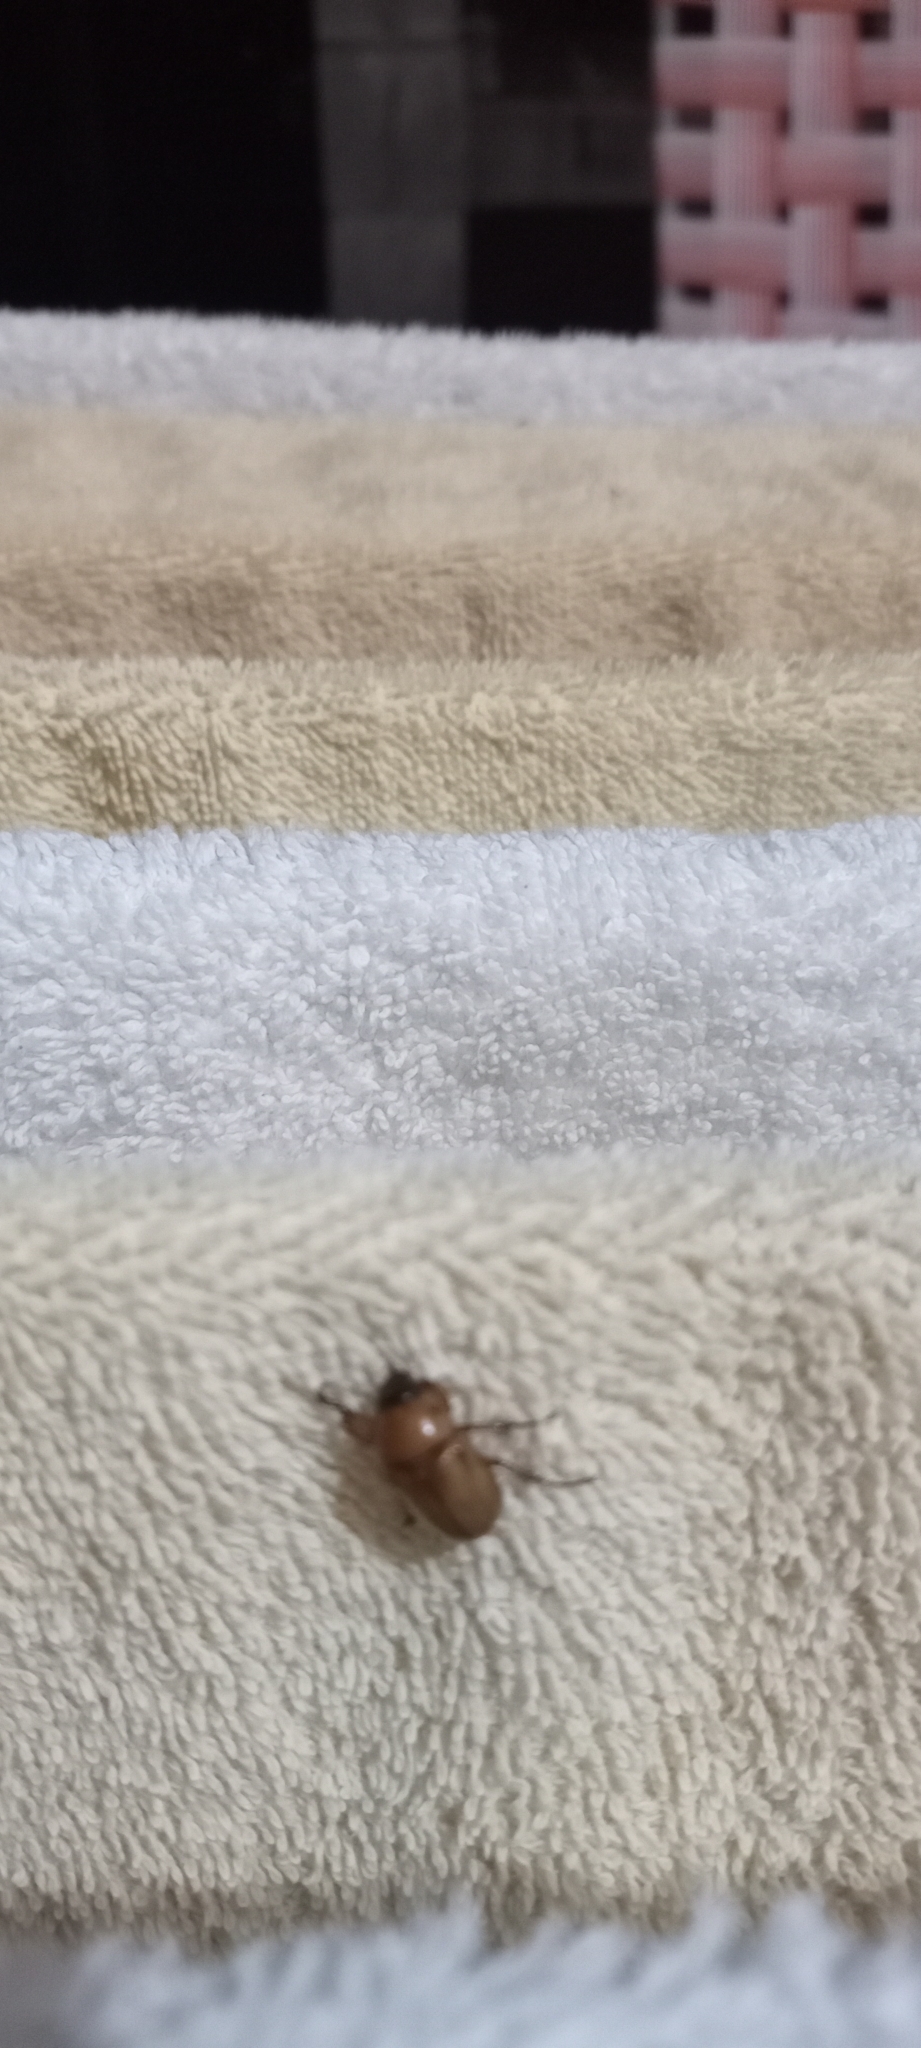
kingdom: Animalia
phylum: Arthropoda
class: Insecta
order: Coleoptera
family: Scarabaeidae
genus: Cyclocephala
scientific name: Cyclocephala putrida
